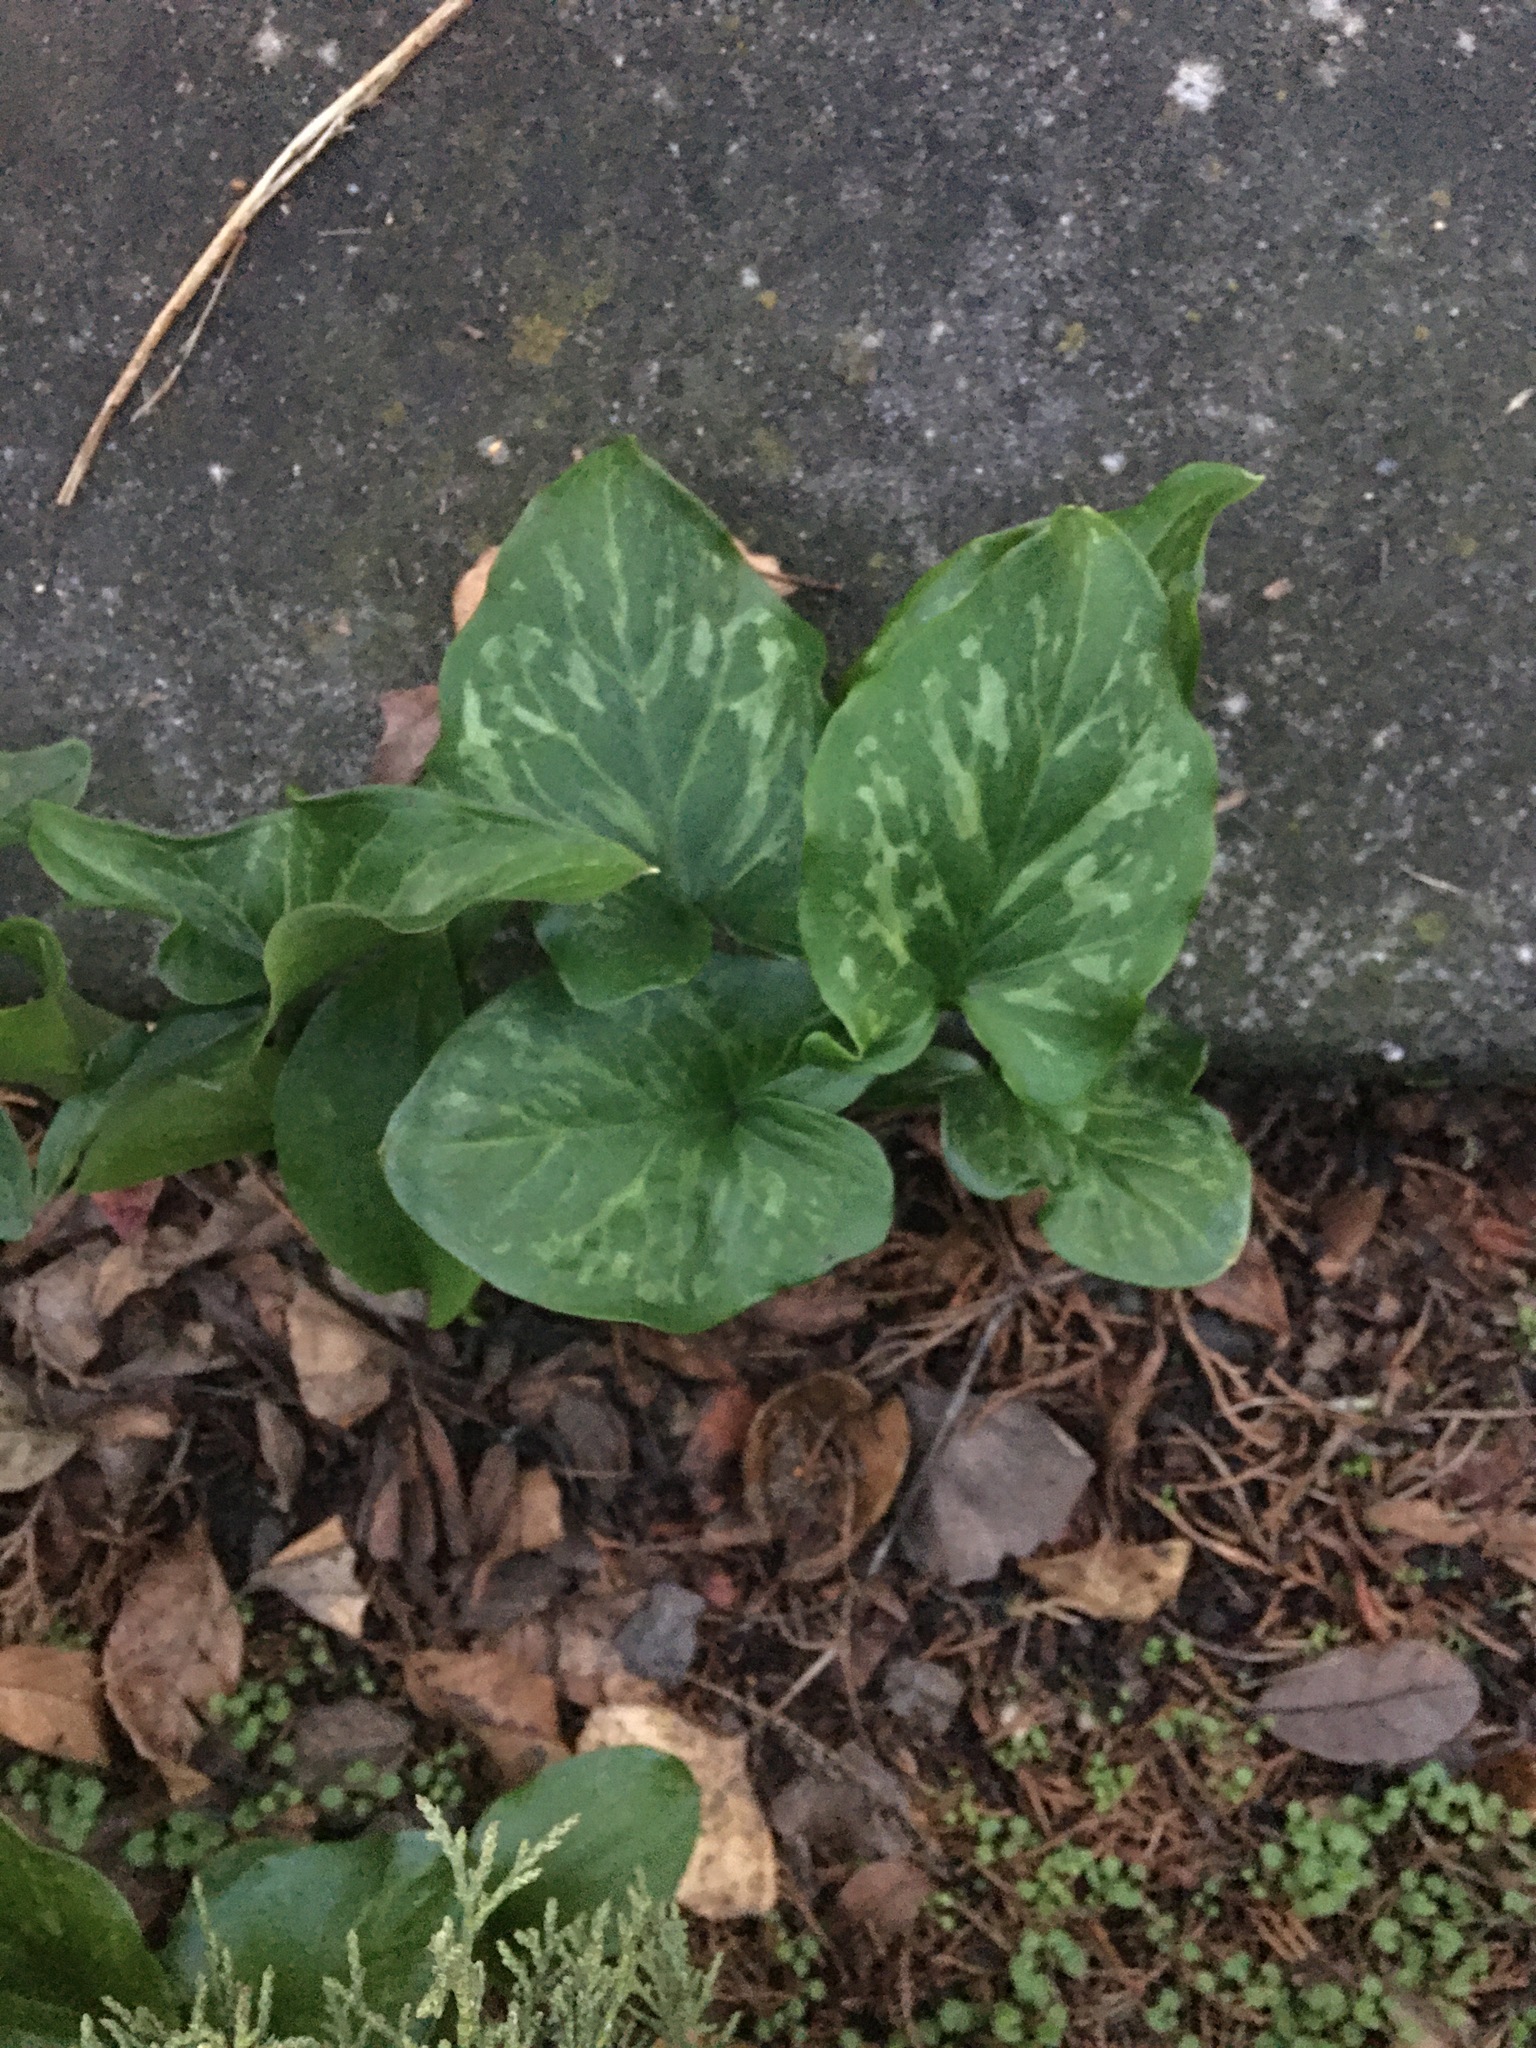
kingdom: Plantae
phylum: Tracheophyta
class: Liliopsida
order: Alismatales
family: Araceae
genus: Arum
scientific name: Arum italicum
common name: Italian lords-and-ladies
